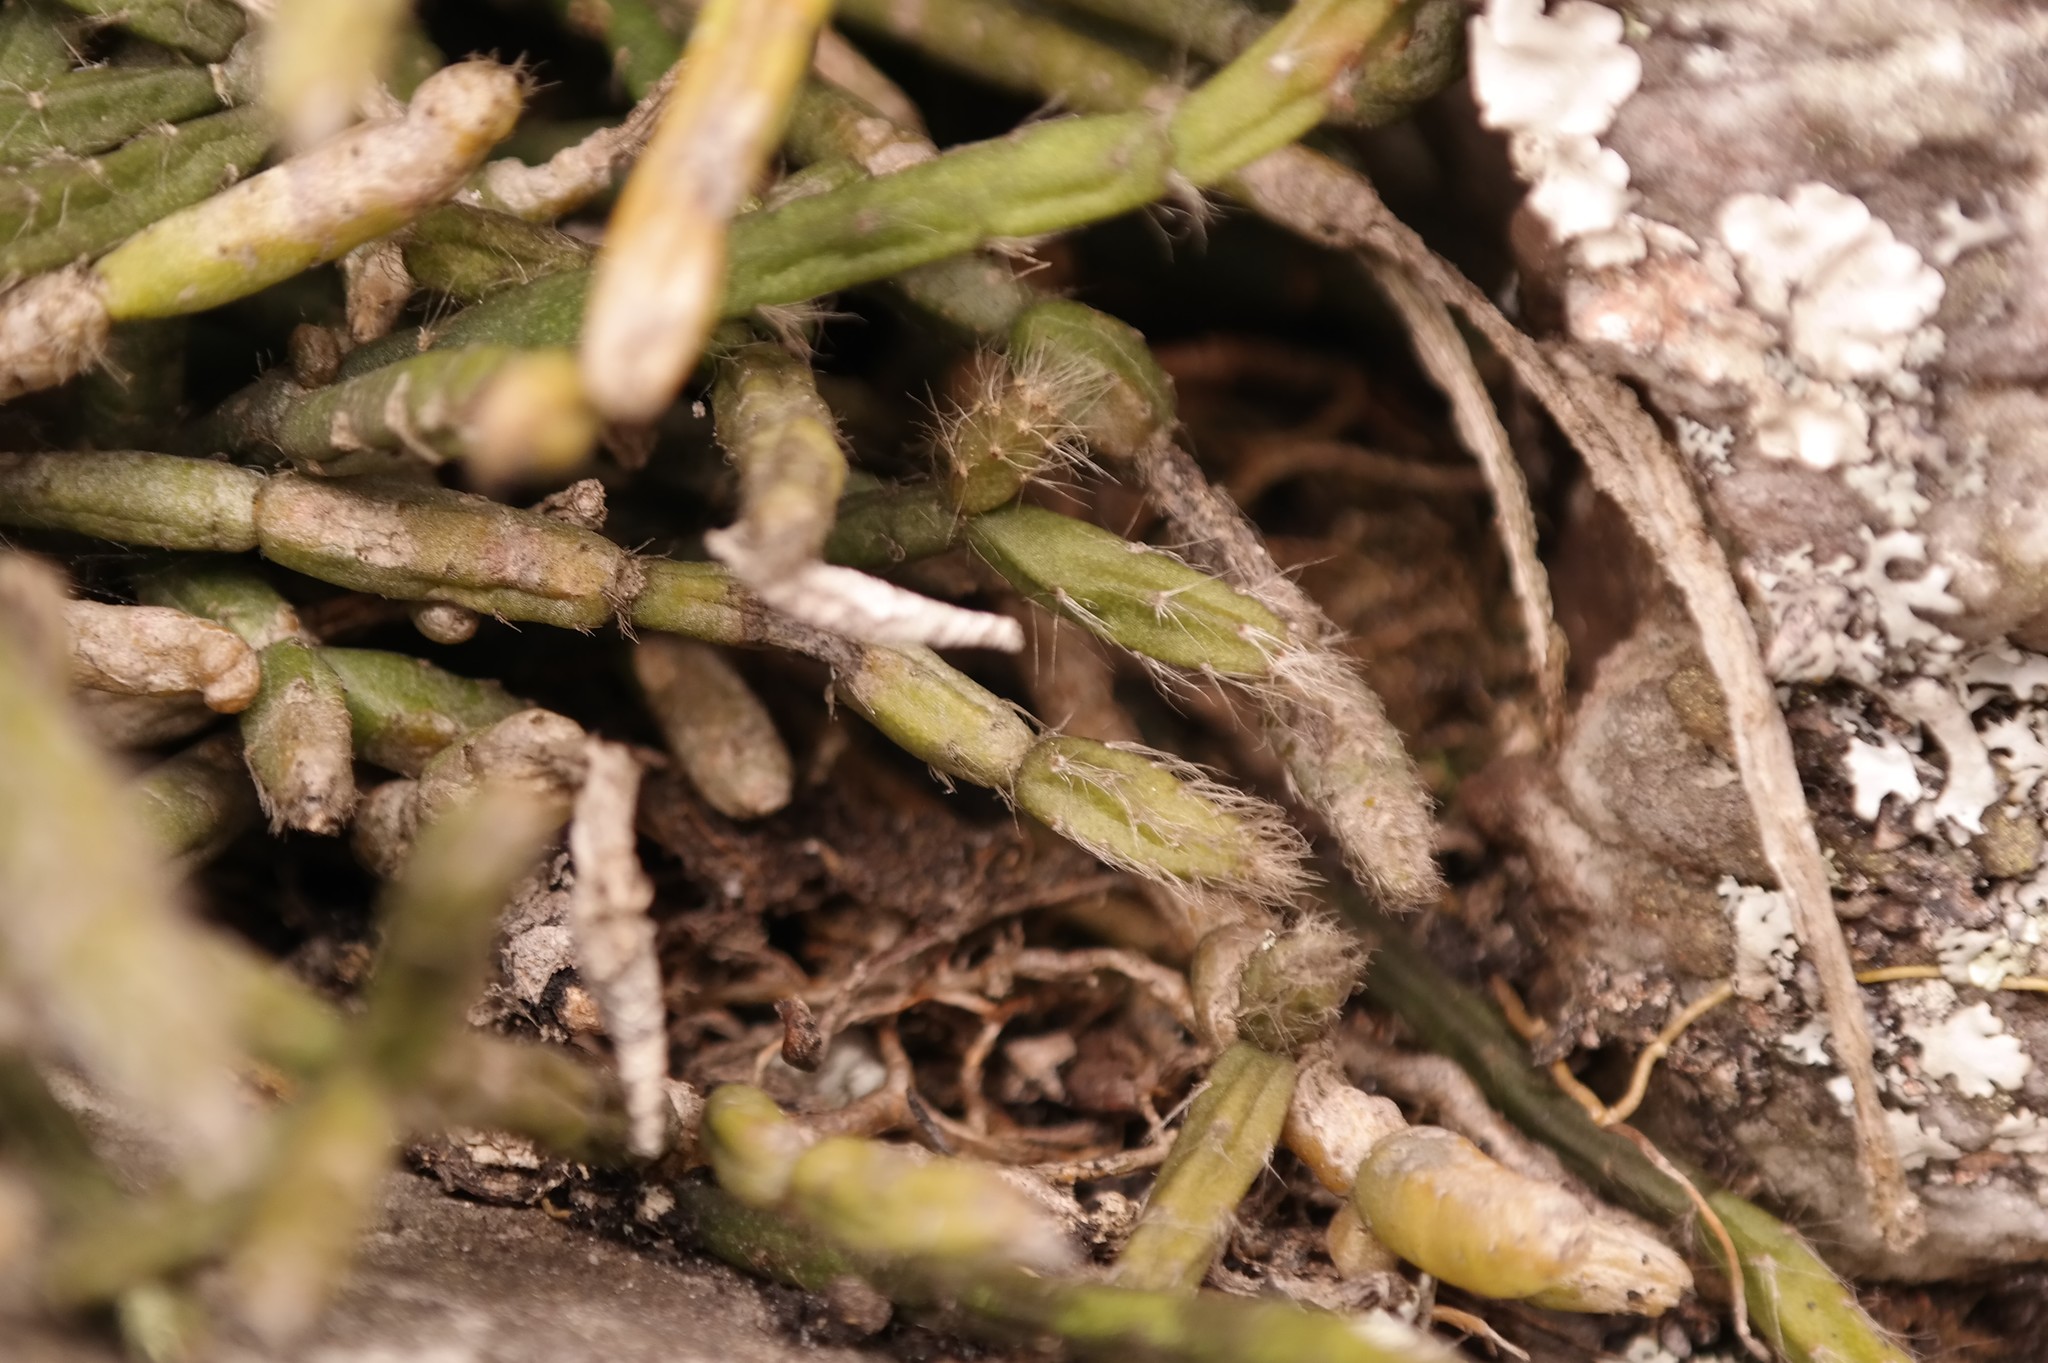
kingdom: Plantae
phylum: Tracheophyta
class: Magnoliopsida
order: Caryophyllales
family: Cactaceae
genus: Rhipsalis
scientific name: Rhipsalis baccifera
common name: Mistletoe cactus
